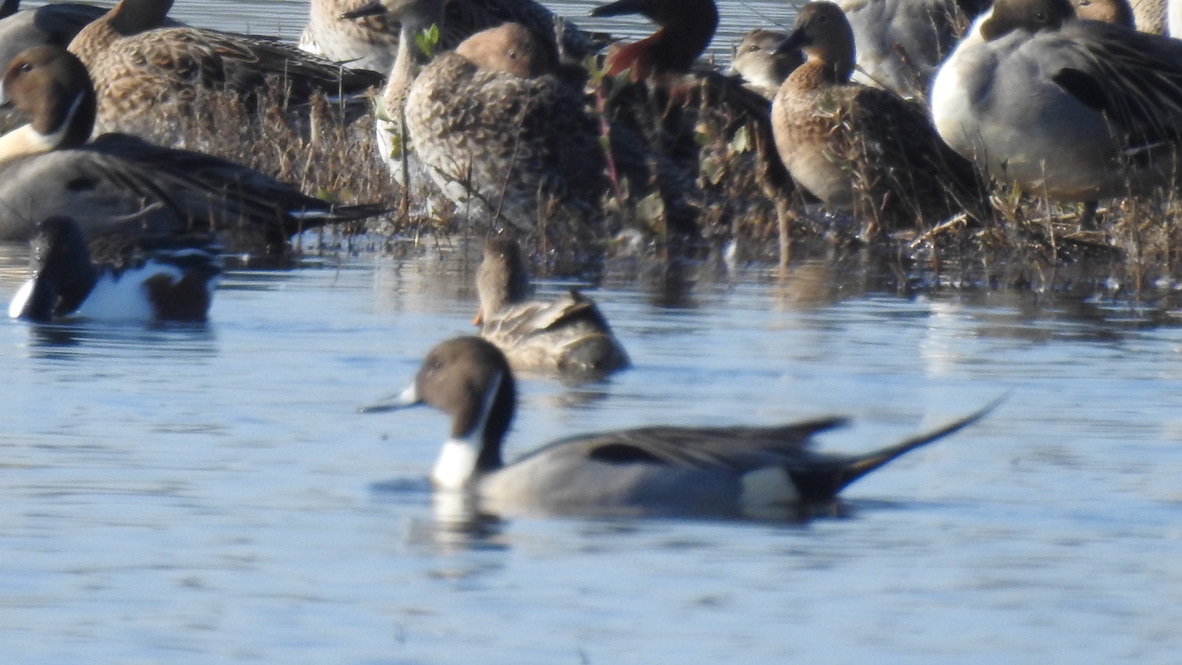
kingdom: Animalia
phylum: Chordata
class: Aves
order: Anseriformes
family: Anatidae
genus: Anas
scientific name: Anas acuta
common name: Northern pintail
